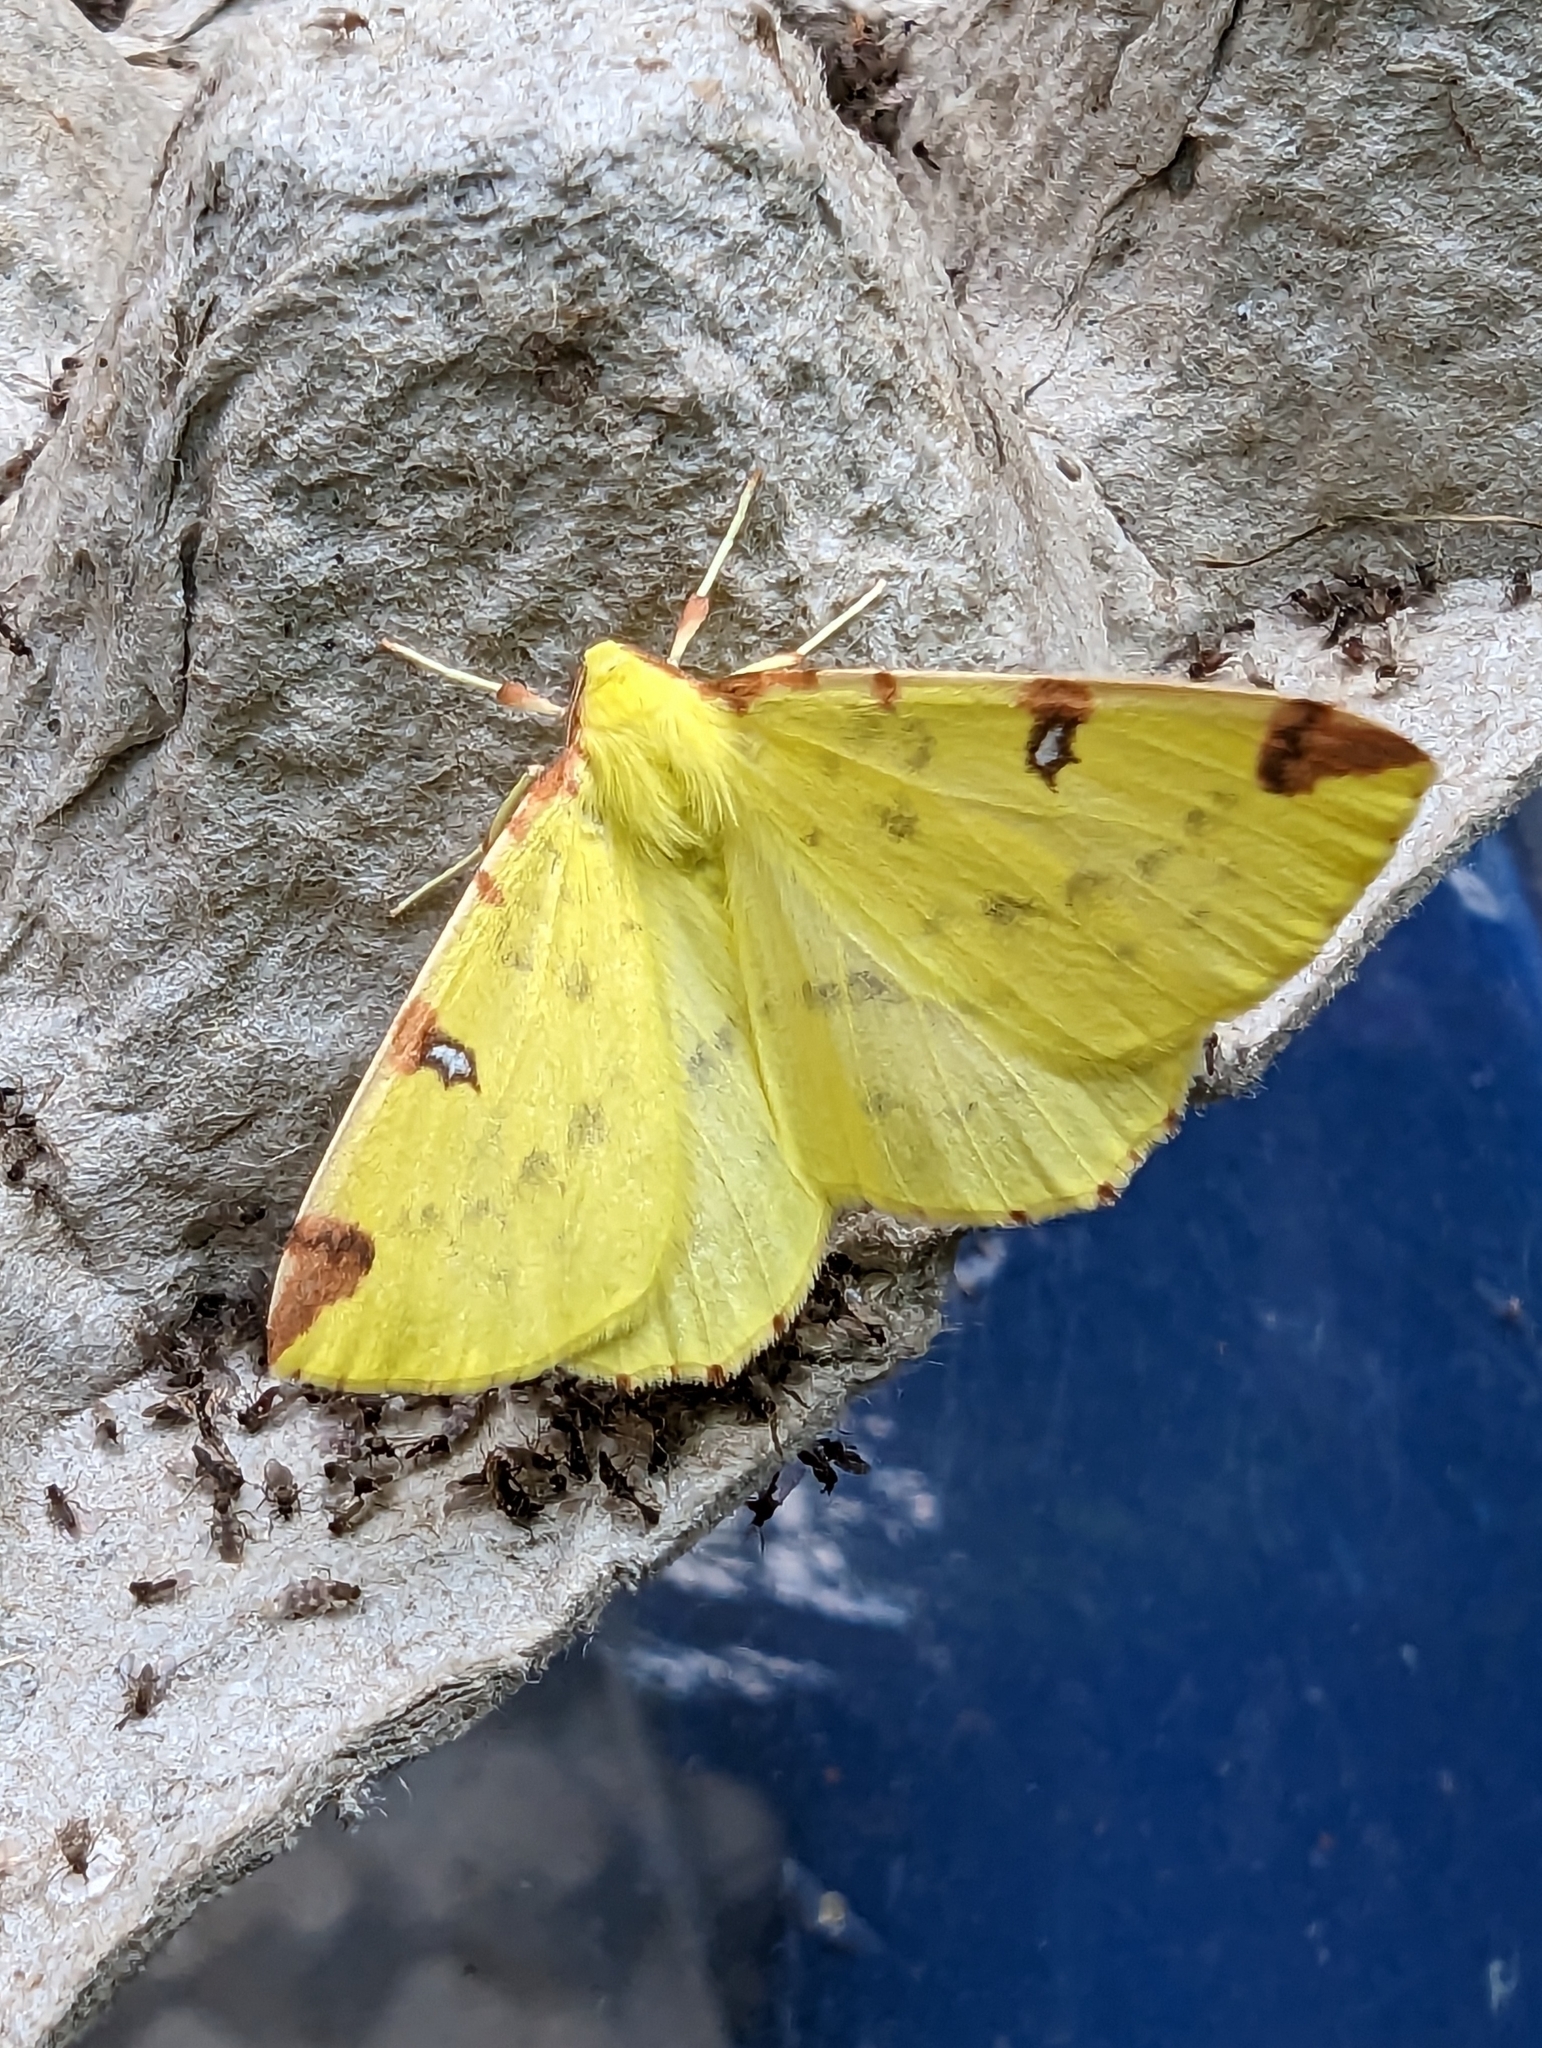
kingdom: Animalia
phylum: Arthropoda
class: Insecta
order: Lepidoptera
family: Geometridae
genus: Opisthograptis
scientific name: Opisthograptis luteolata
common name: Brimstone moth
